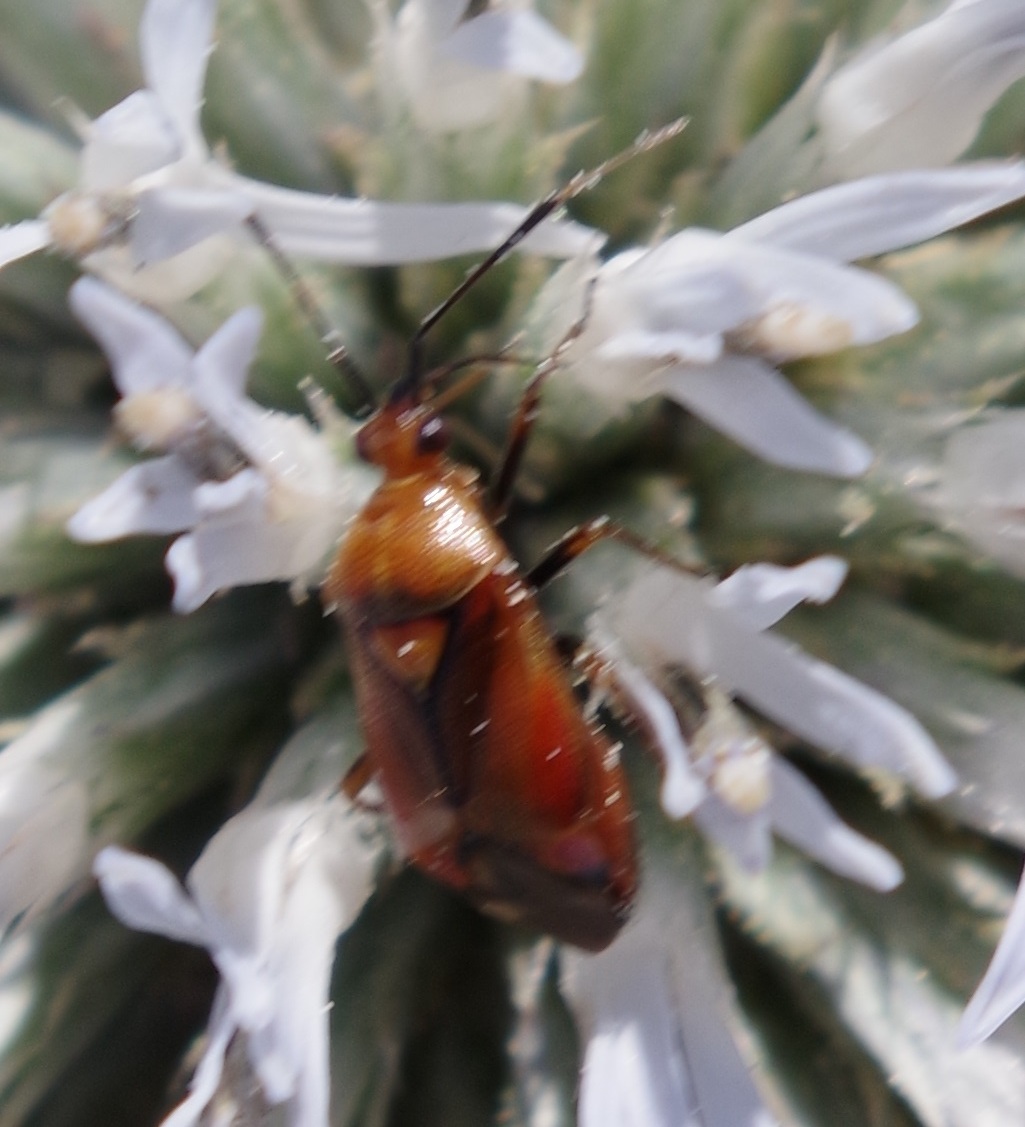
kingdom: Animalia
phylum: Arthropoda
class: Insecta
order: Hemiptera
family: Miridae
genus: Deraeocoris
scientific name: Deraeocoris ruber
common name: Plant bug
